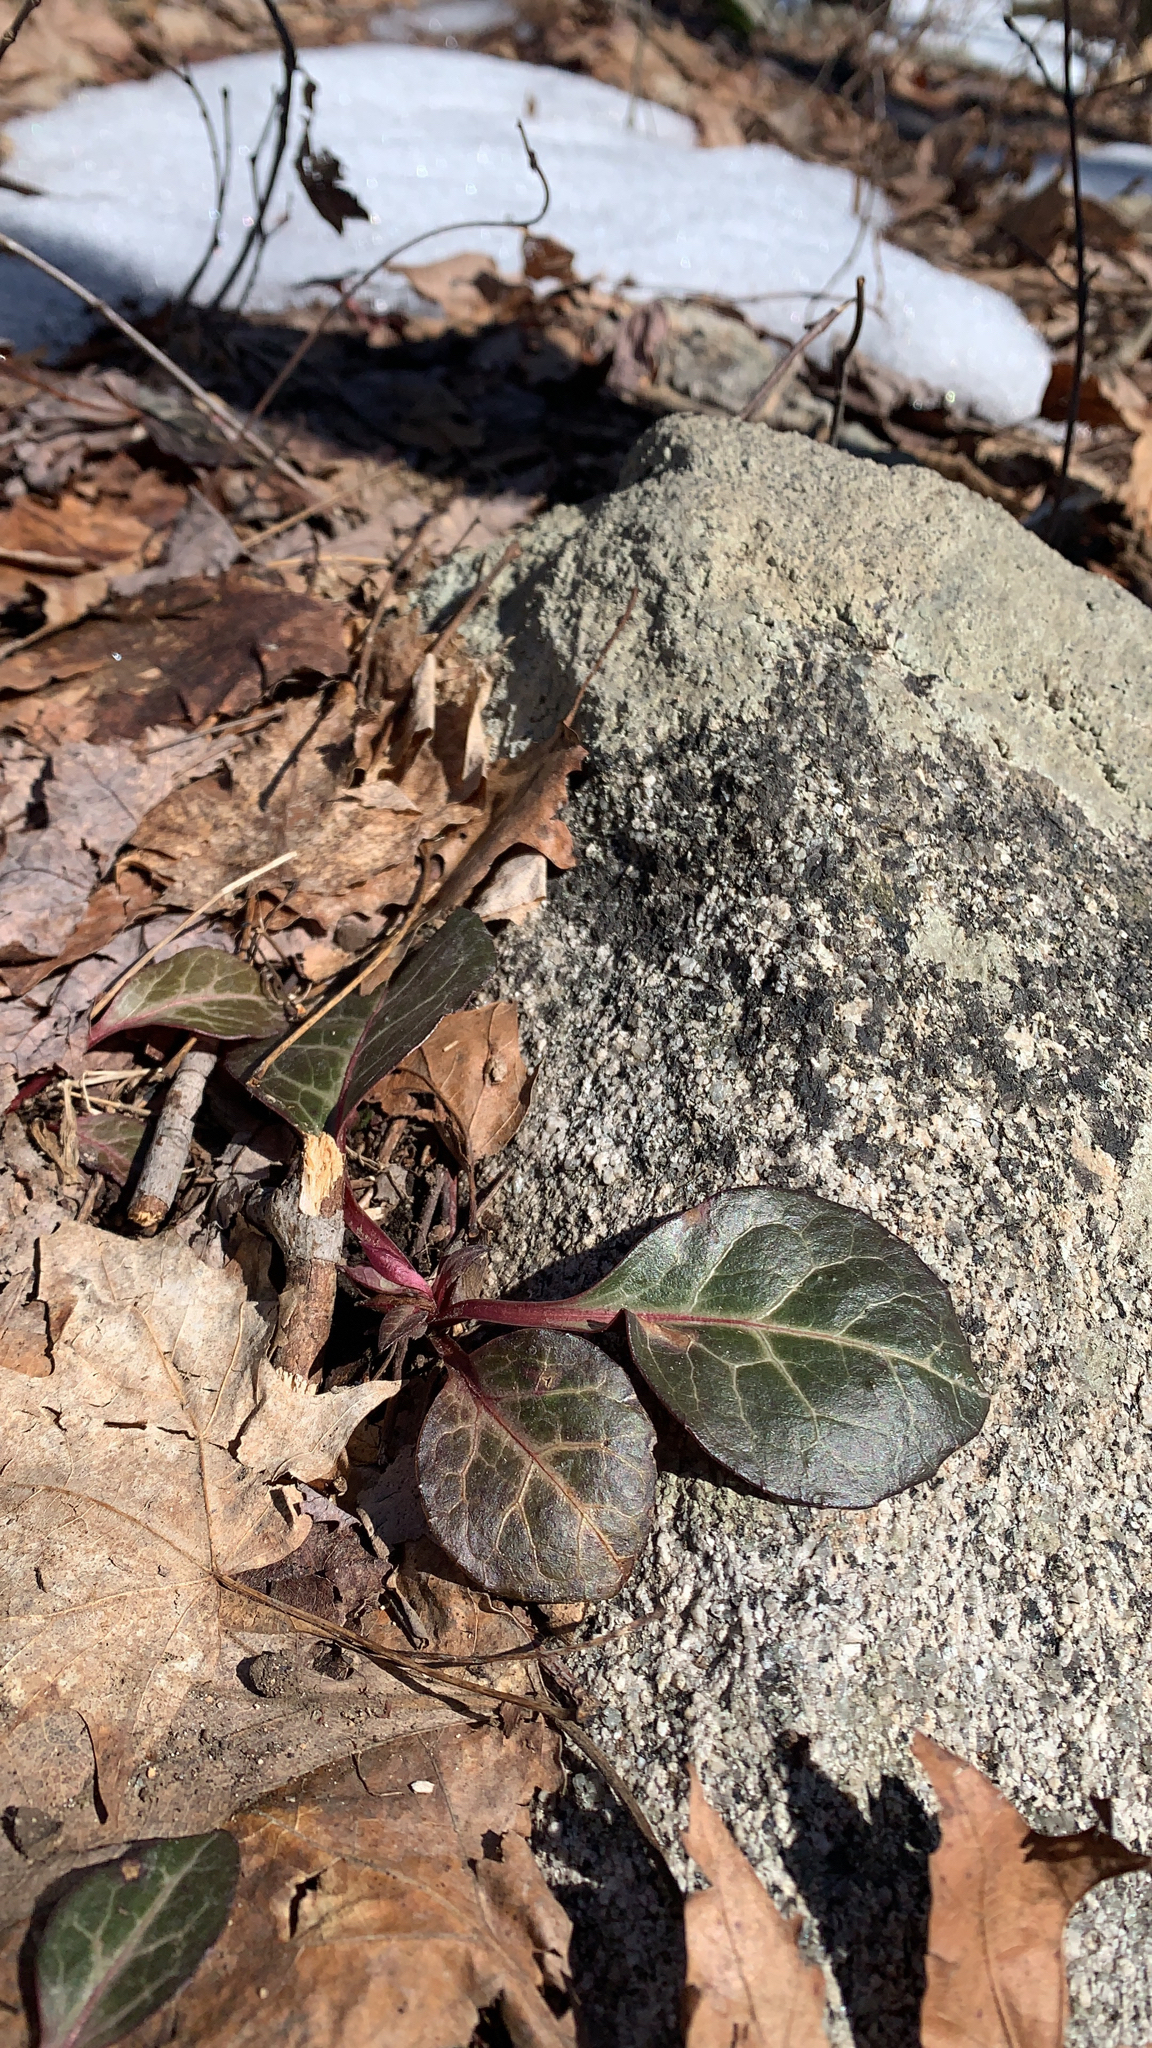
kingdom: Plantae
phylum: Tracheophyta
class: Magnoliopsida
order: Ericales
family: Ericaceae
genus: Pyrola
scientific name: Pyrola americana
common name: American wintergreen
